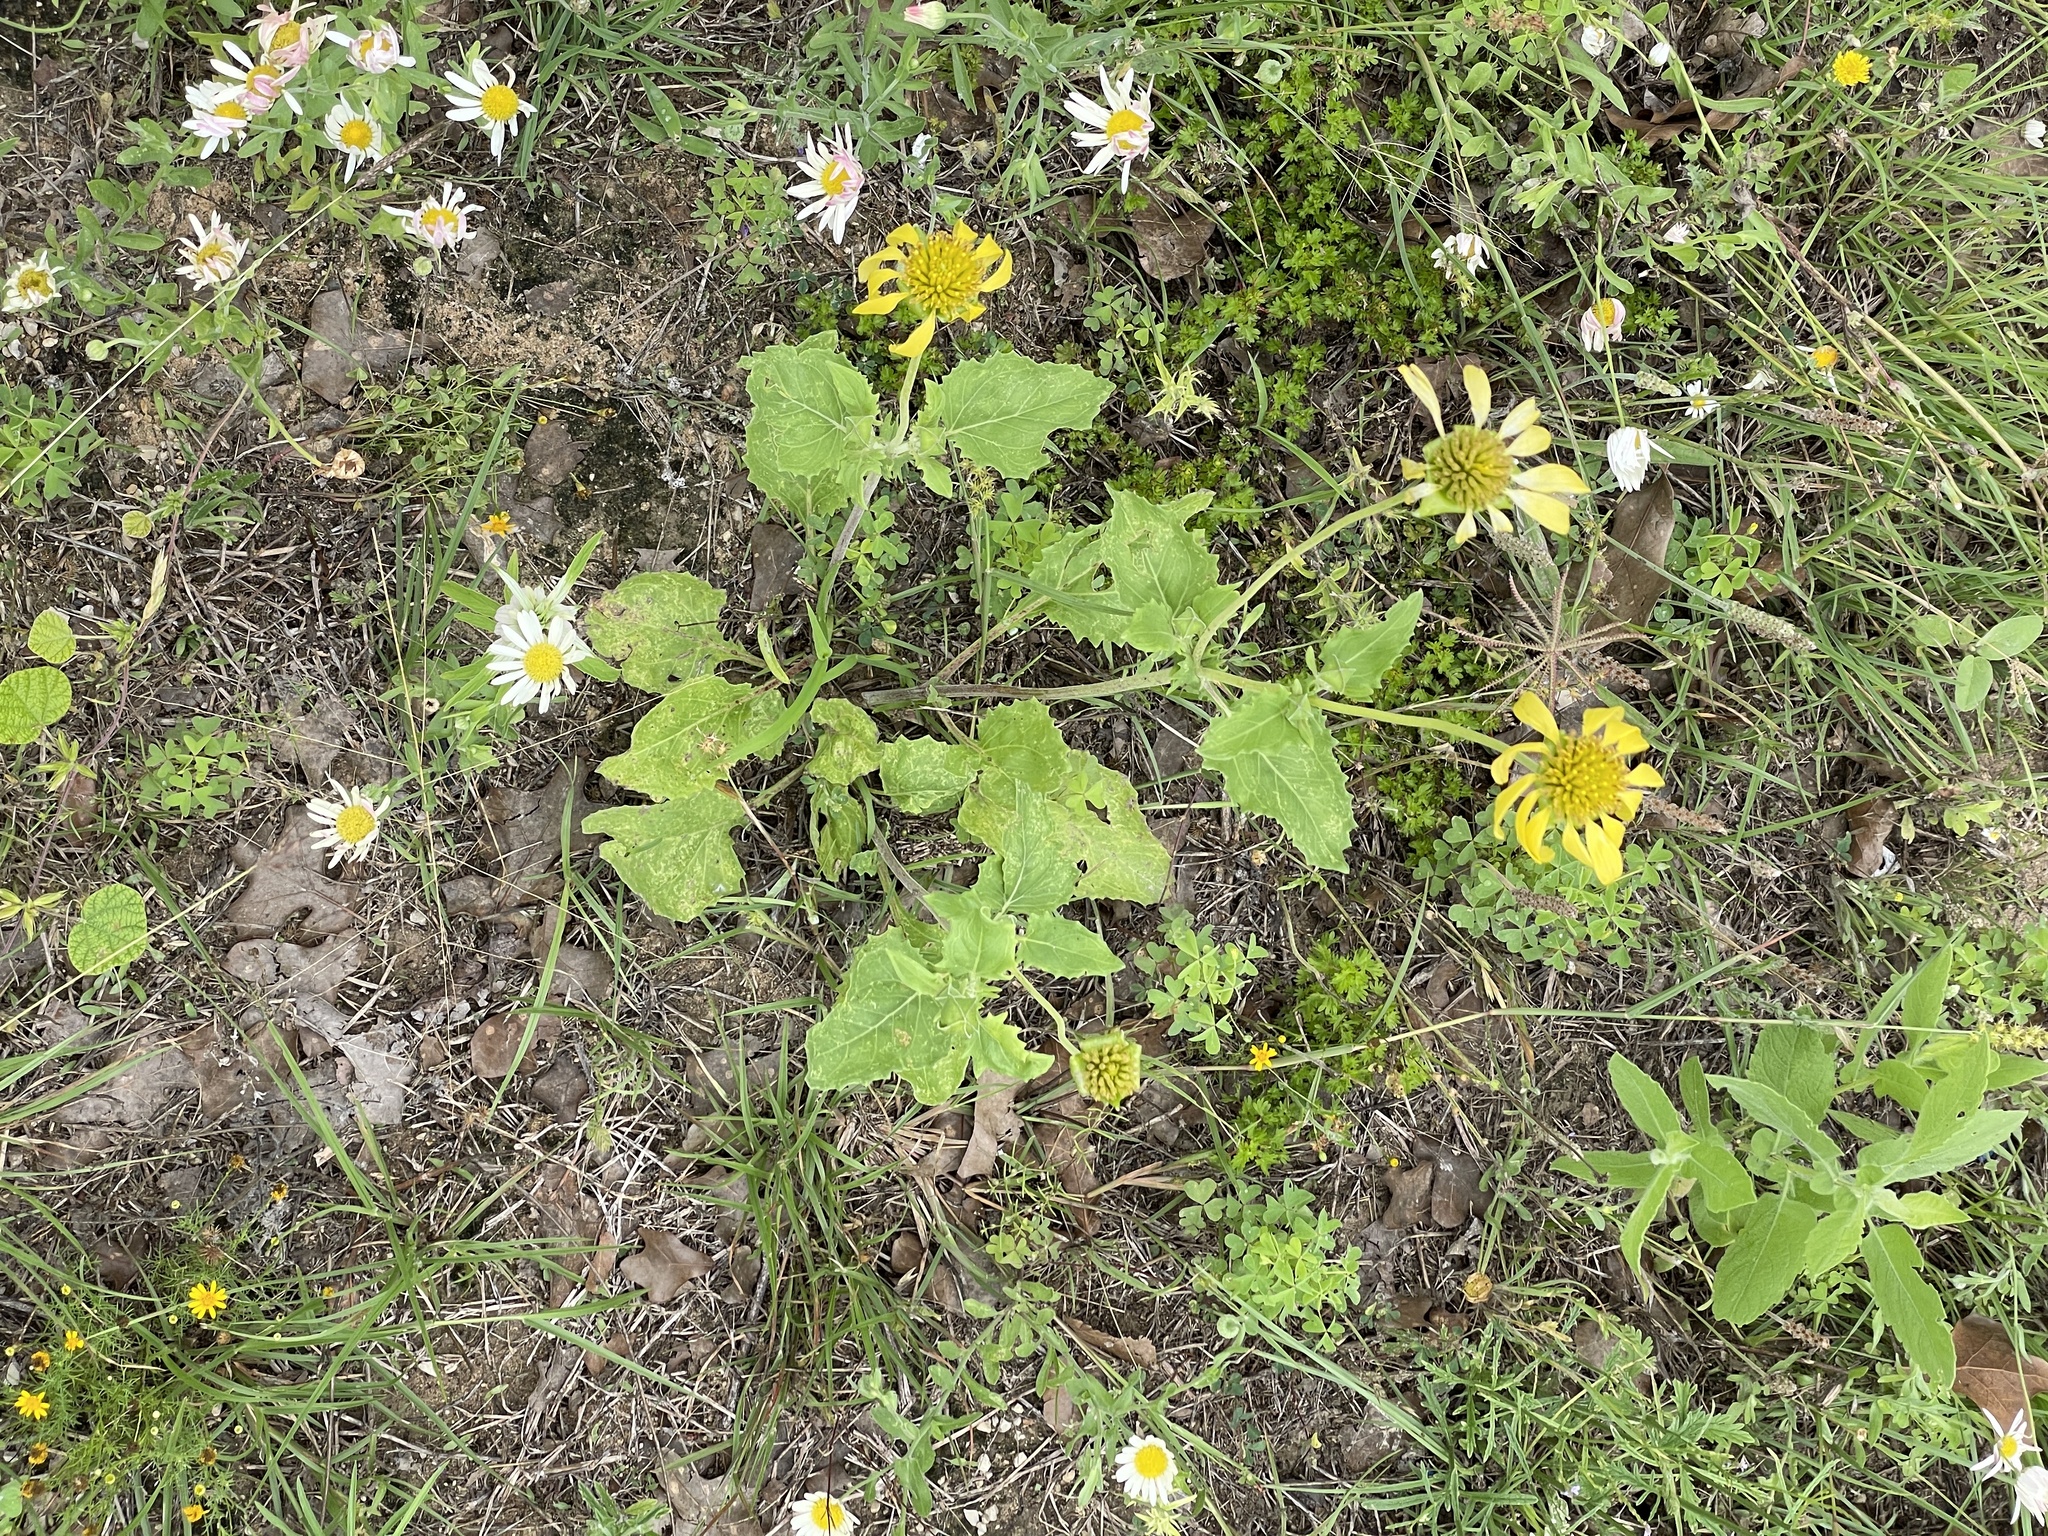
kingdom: Plantae
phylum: Tracheophyta
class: Magnoliopsida
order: Asterales
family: Asteraceae
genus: Tetragonotheca
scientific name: Tetragonotheca repanda
